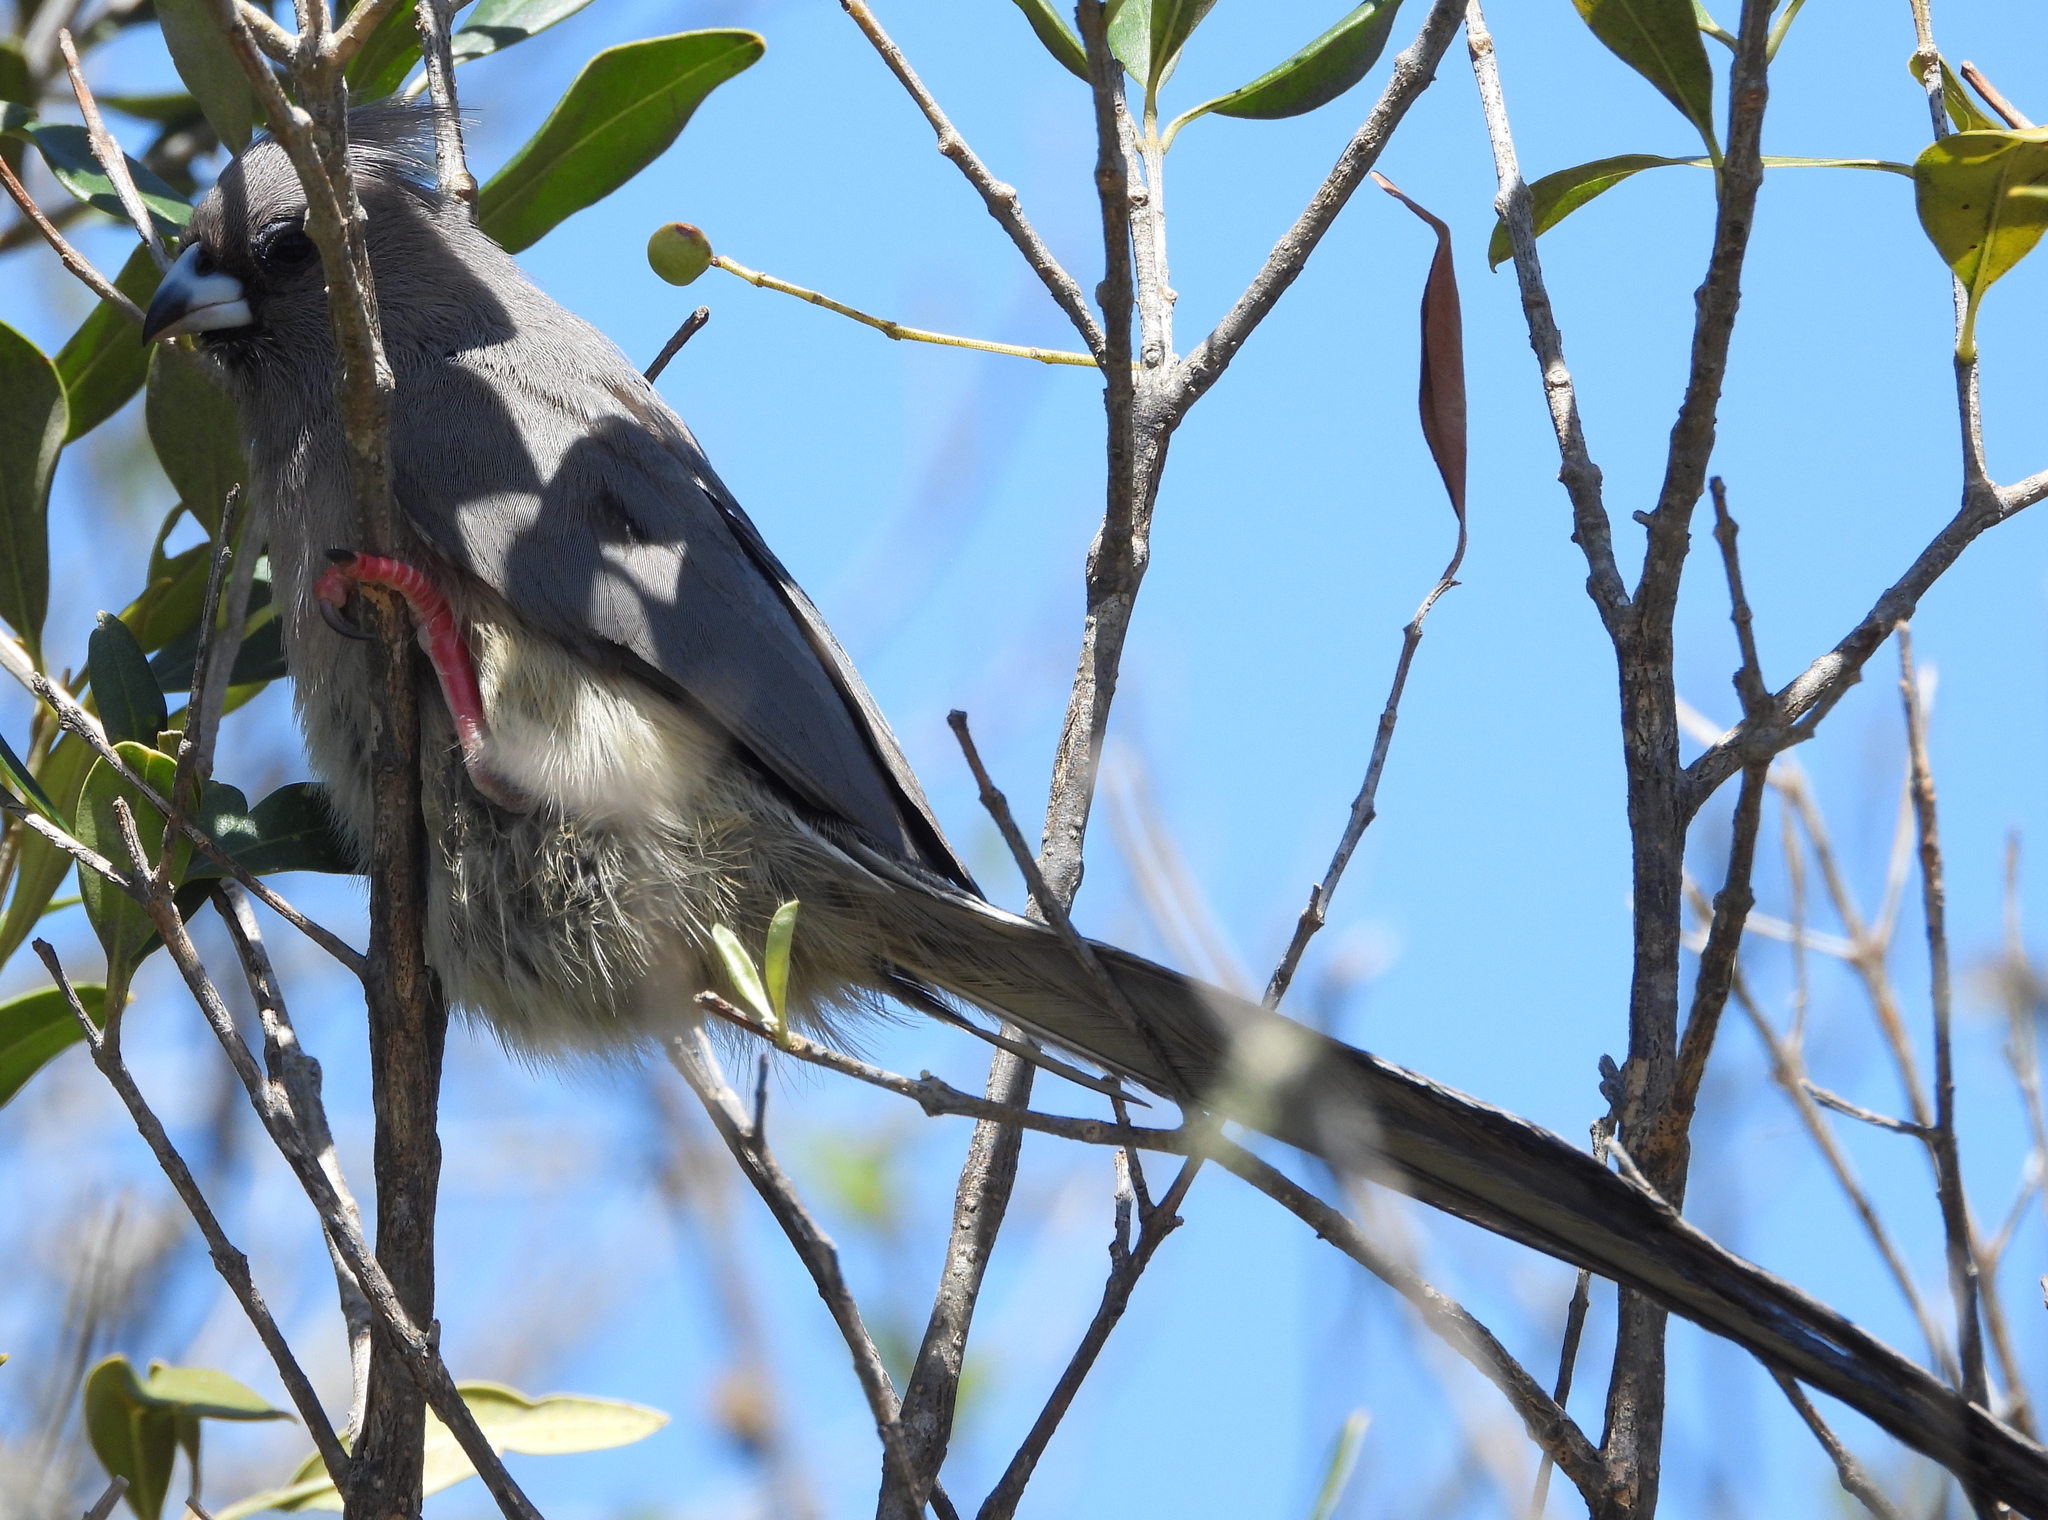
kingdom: Animalia
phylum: Chordata
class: Aves
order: Coliiformes
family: Coliidae
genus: Colius
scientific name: Colius colius
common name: White-backed mousebird
